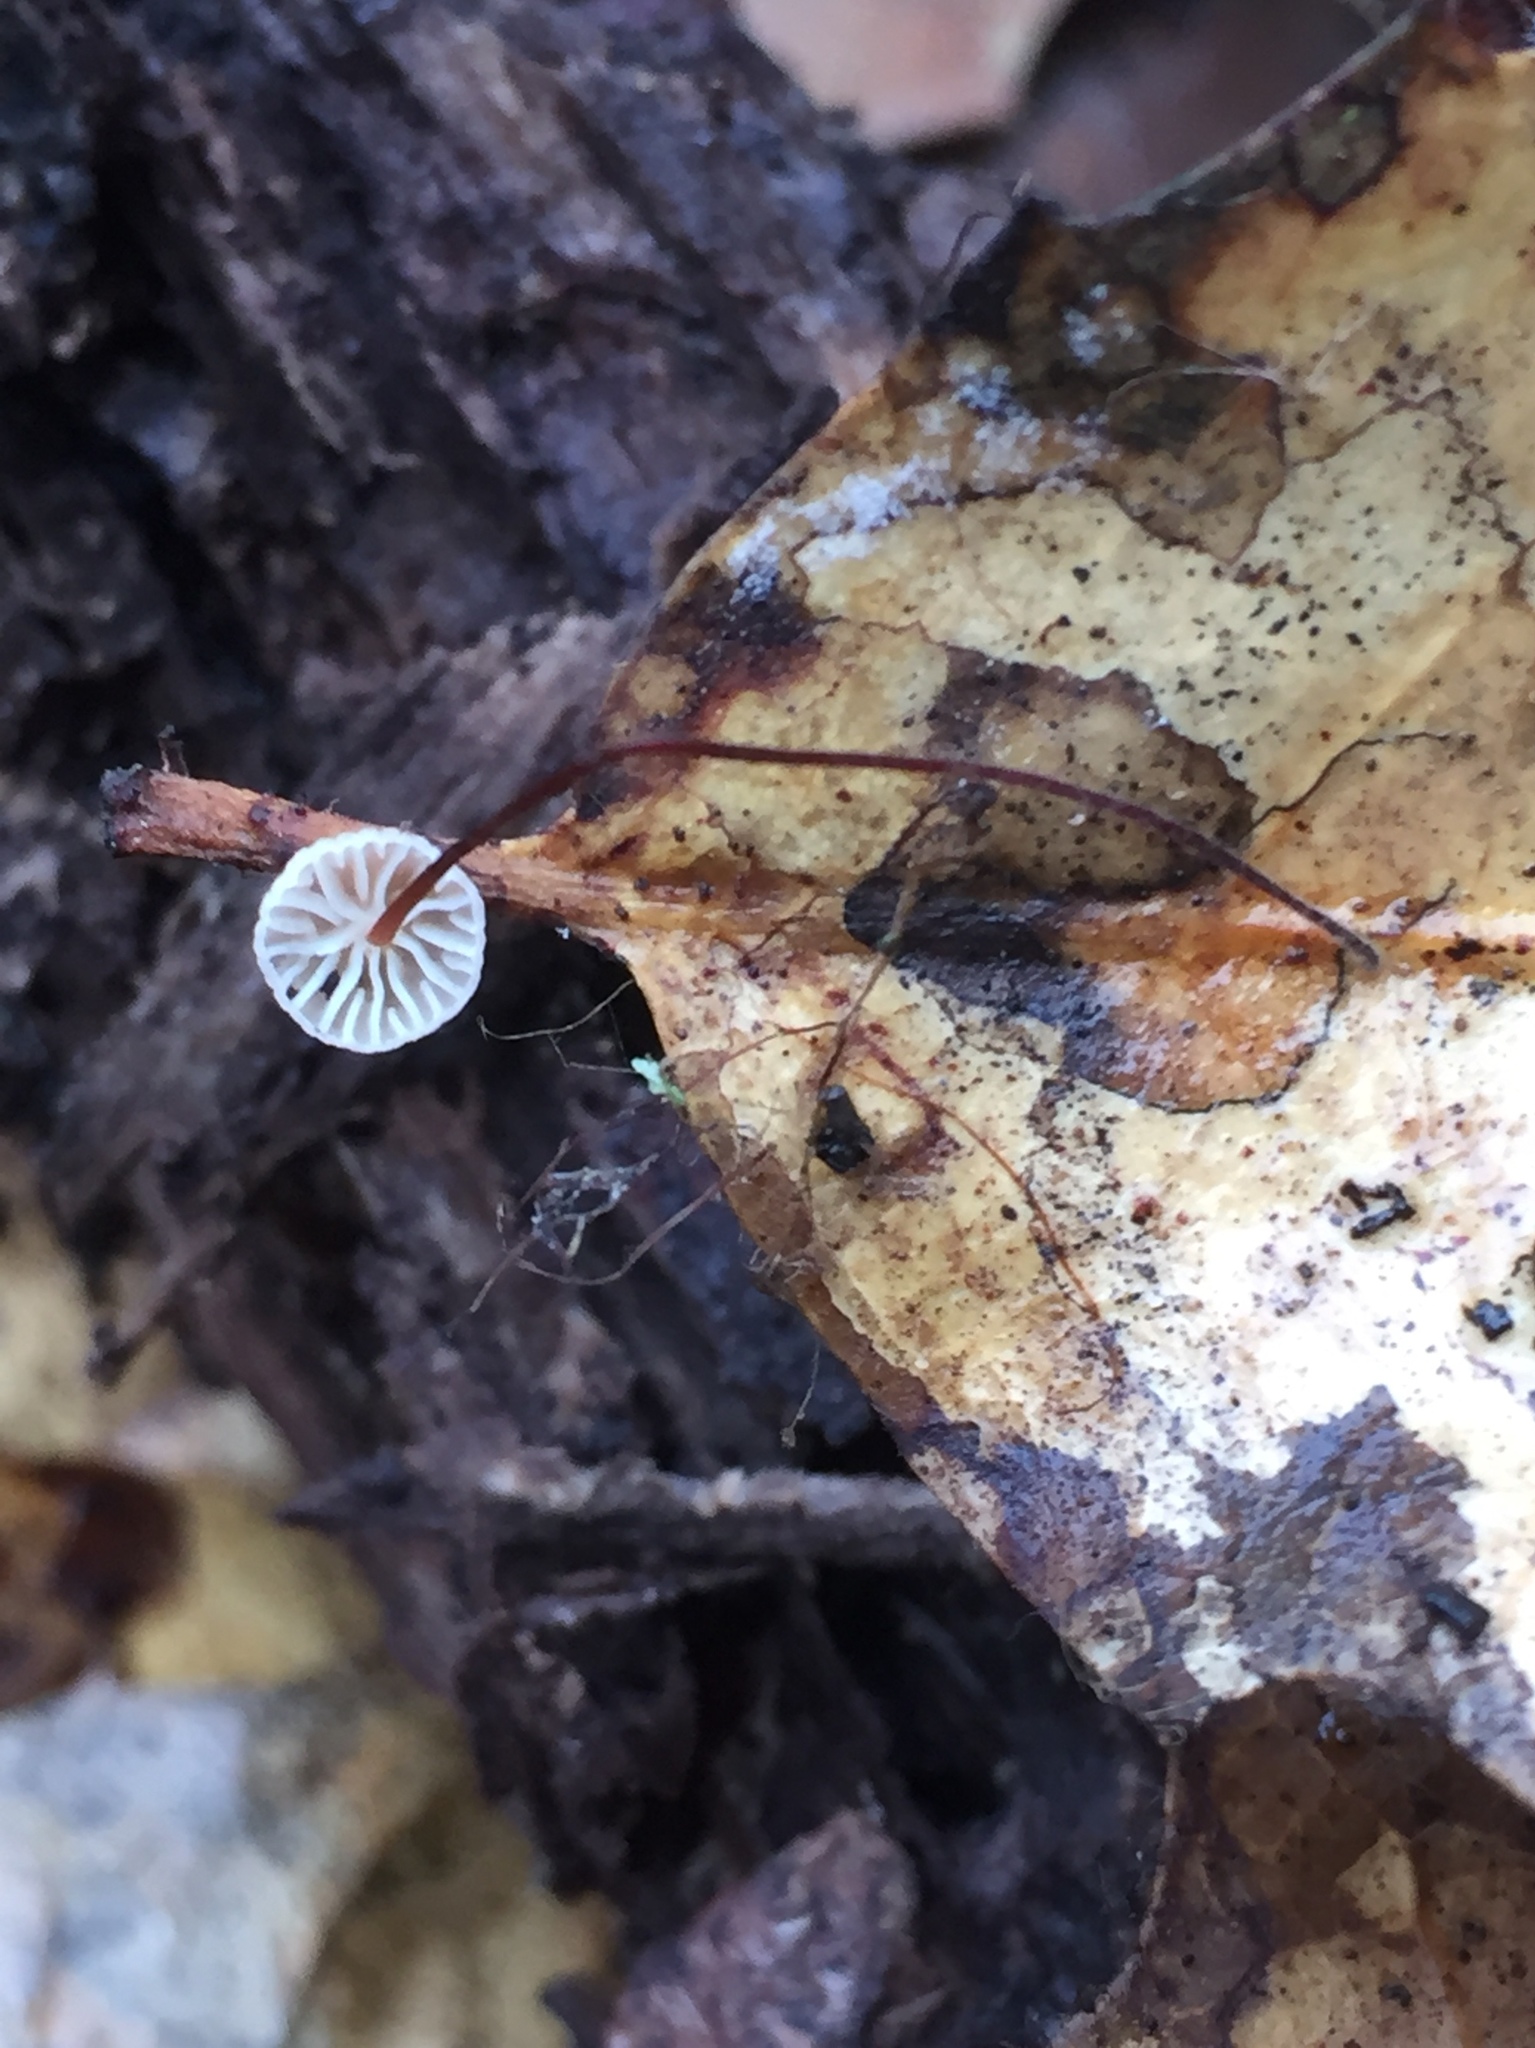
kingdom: Fungi
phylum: Basidiomycota
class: Agaricomycetes
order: Agaricales
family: Omphalotaceae
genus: Collybiopsis
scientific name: Collybiopsis quercophila
